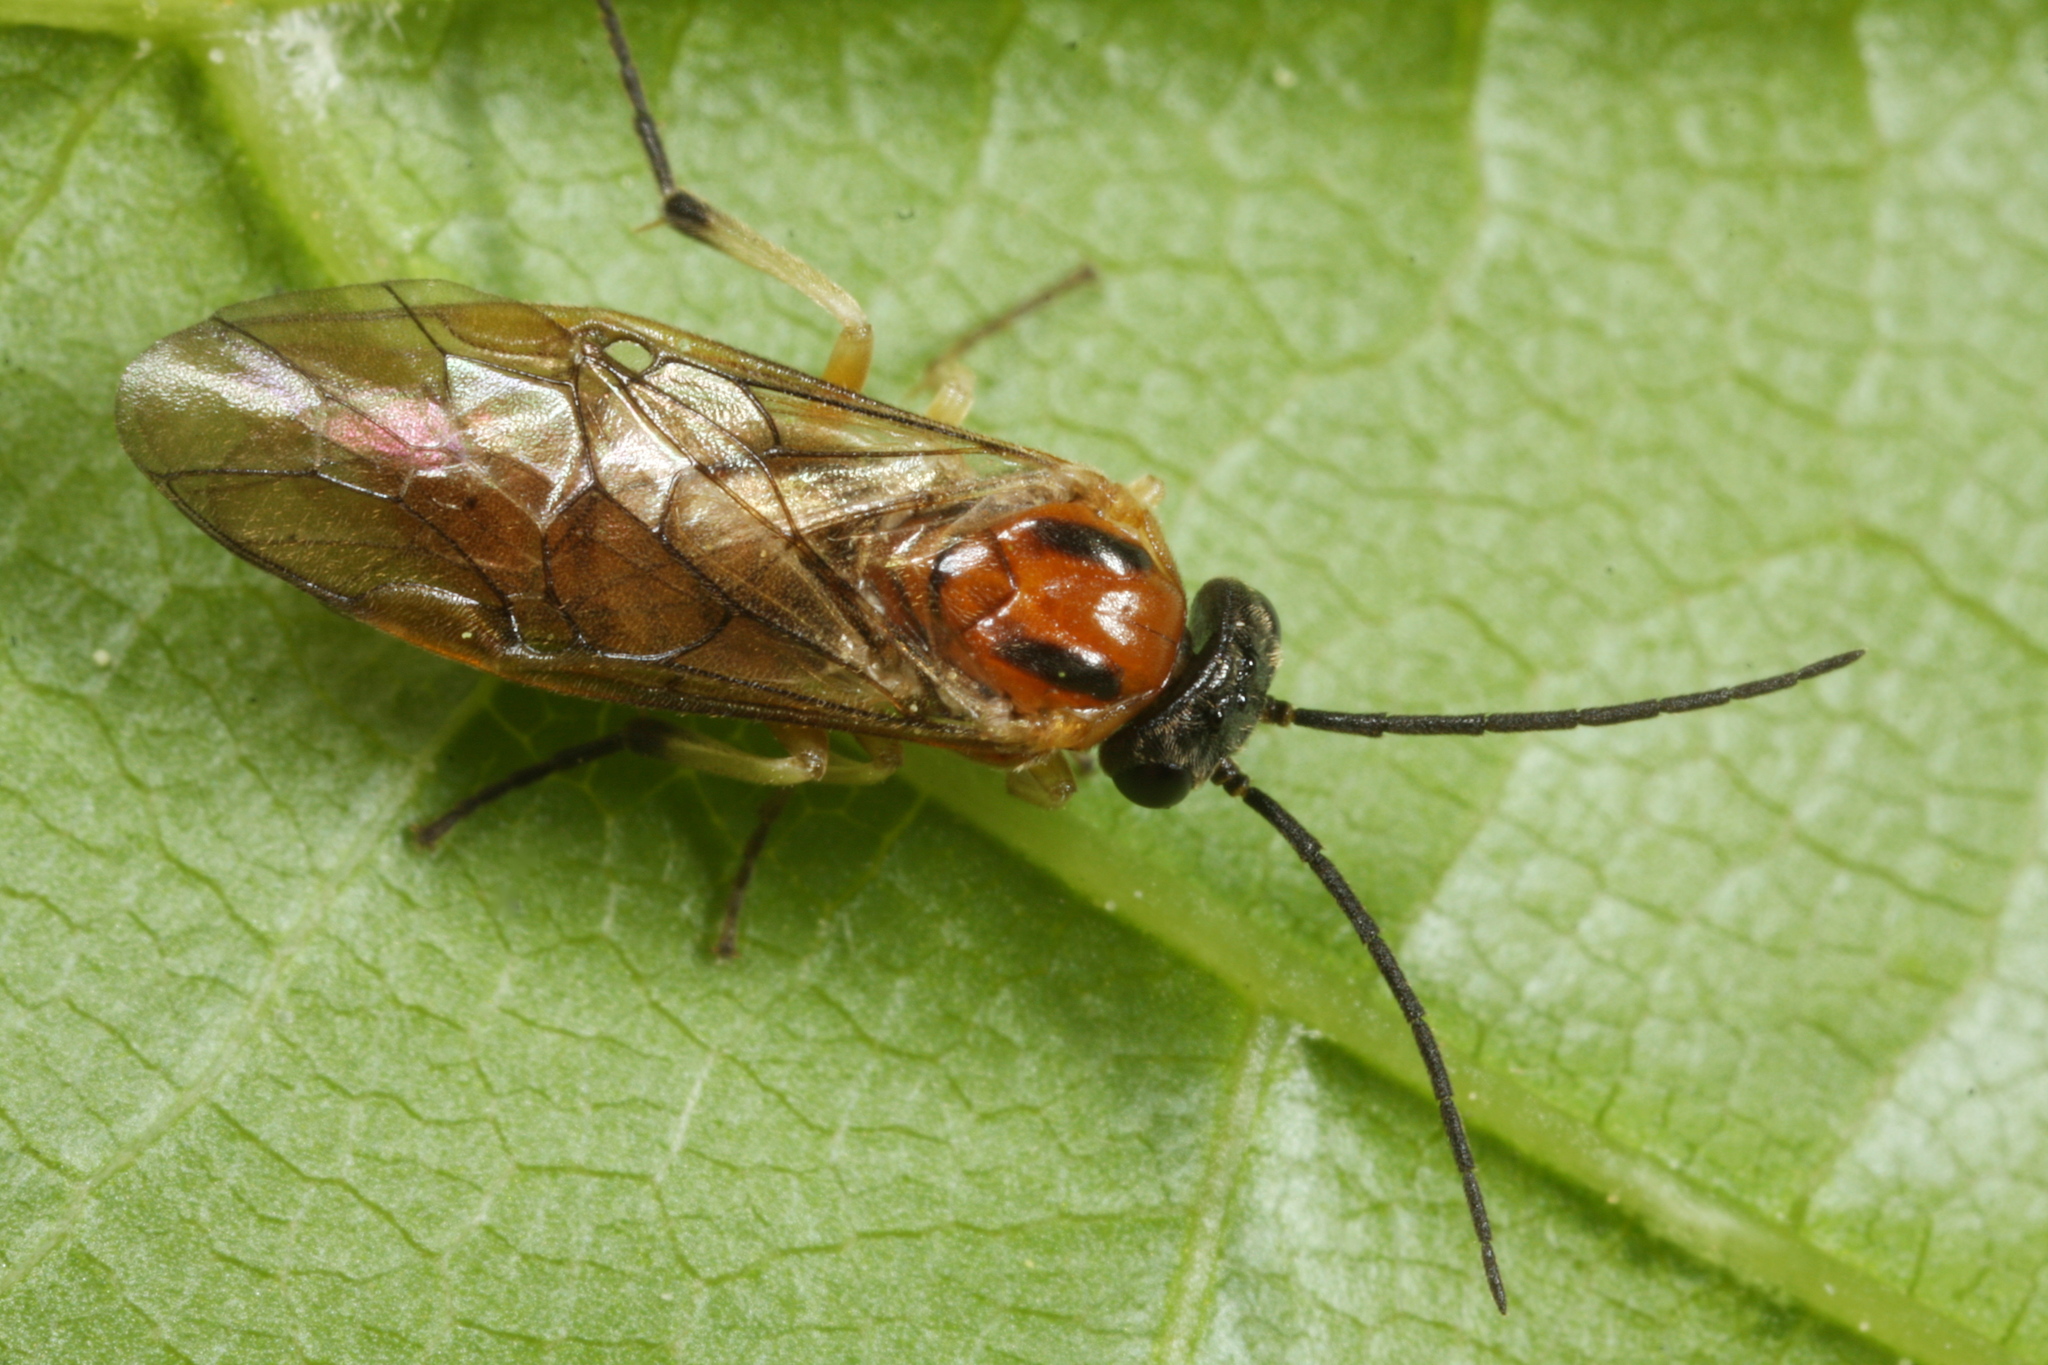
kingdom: Animalia
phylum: Arthropoda
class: Insecta
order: Hymenoptera
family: Tenthredinidae
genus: Pristiphora
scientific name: Pristiphora nigriceps
